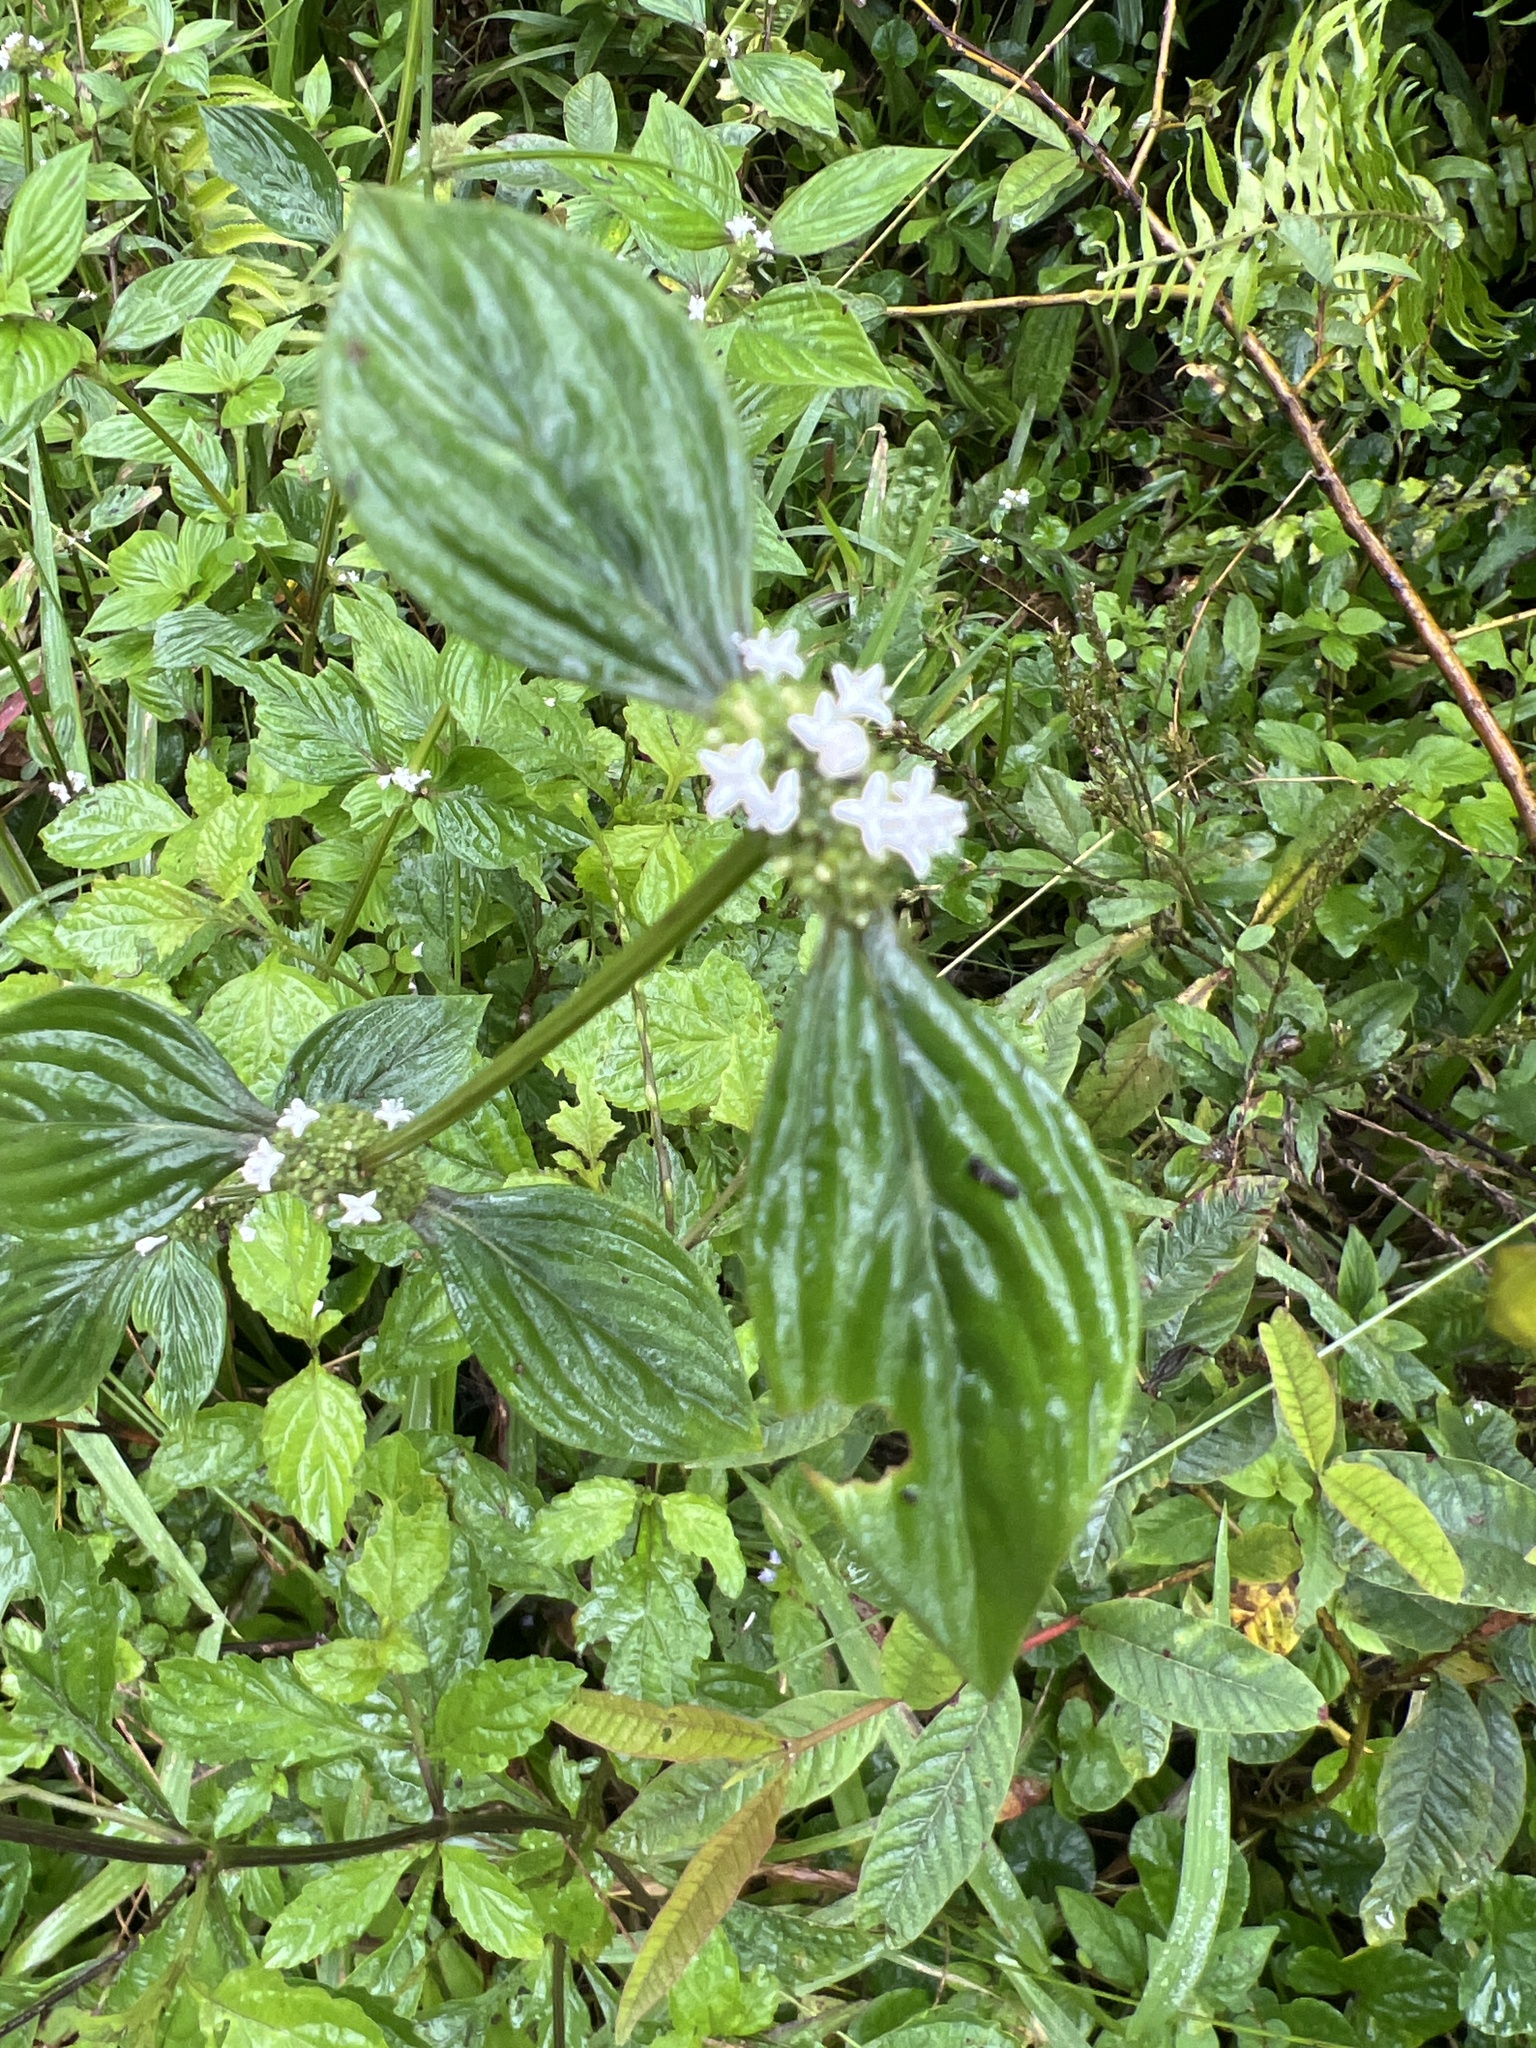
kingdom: Plantae
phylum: Tracheophyta
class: Magnoliopsida
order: Gentianales
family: Rubiaceae
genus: Spermacoce
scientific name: Spermacoce remota
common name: Woodland false buttonweed
